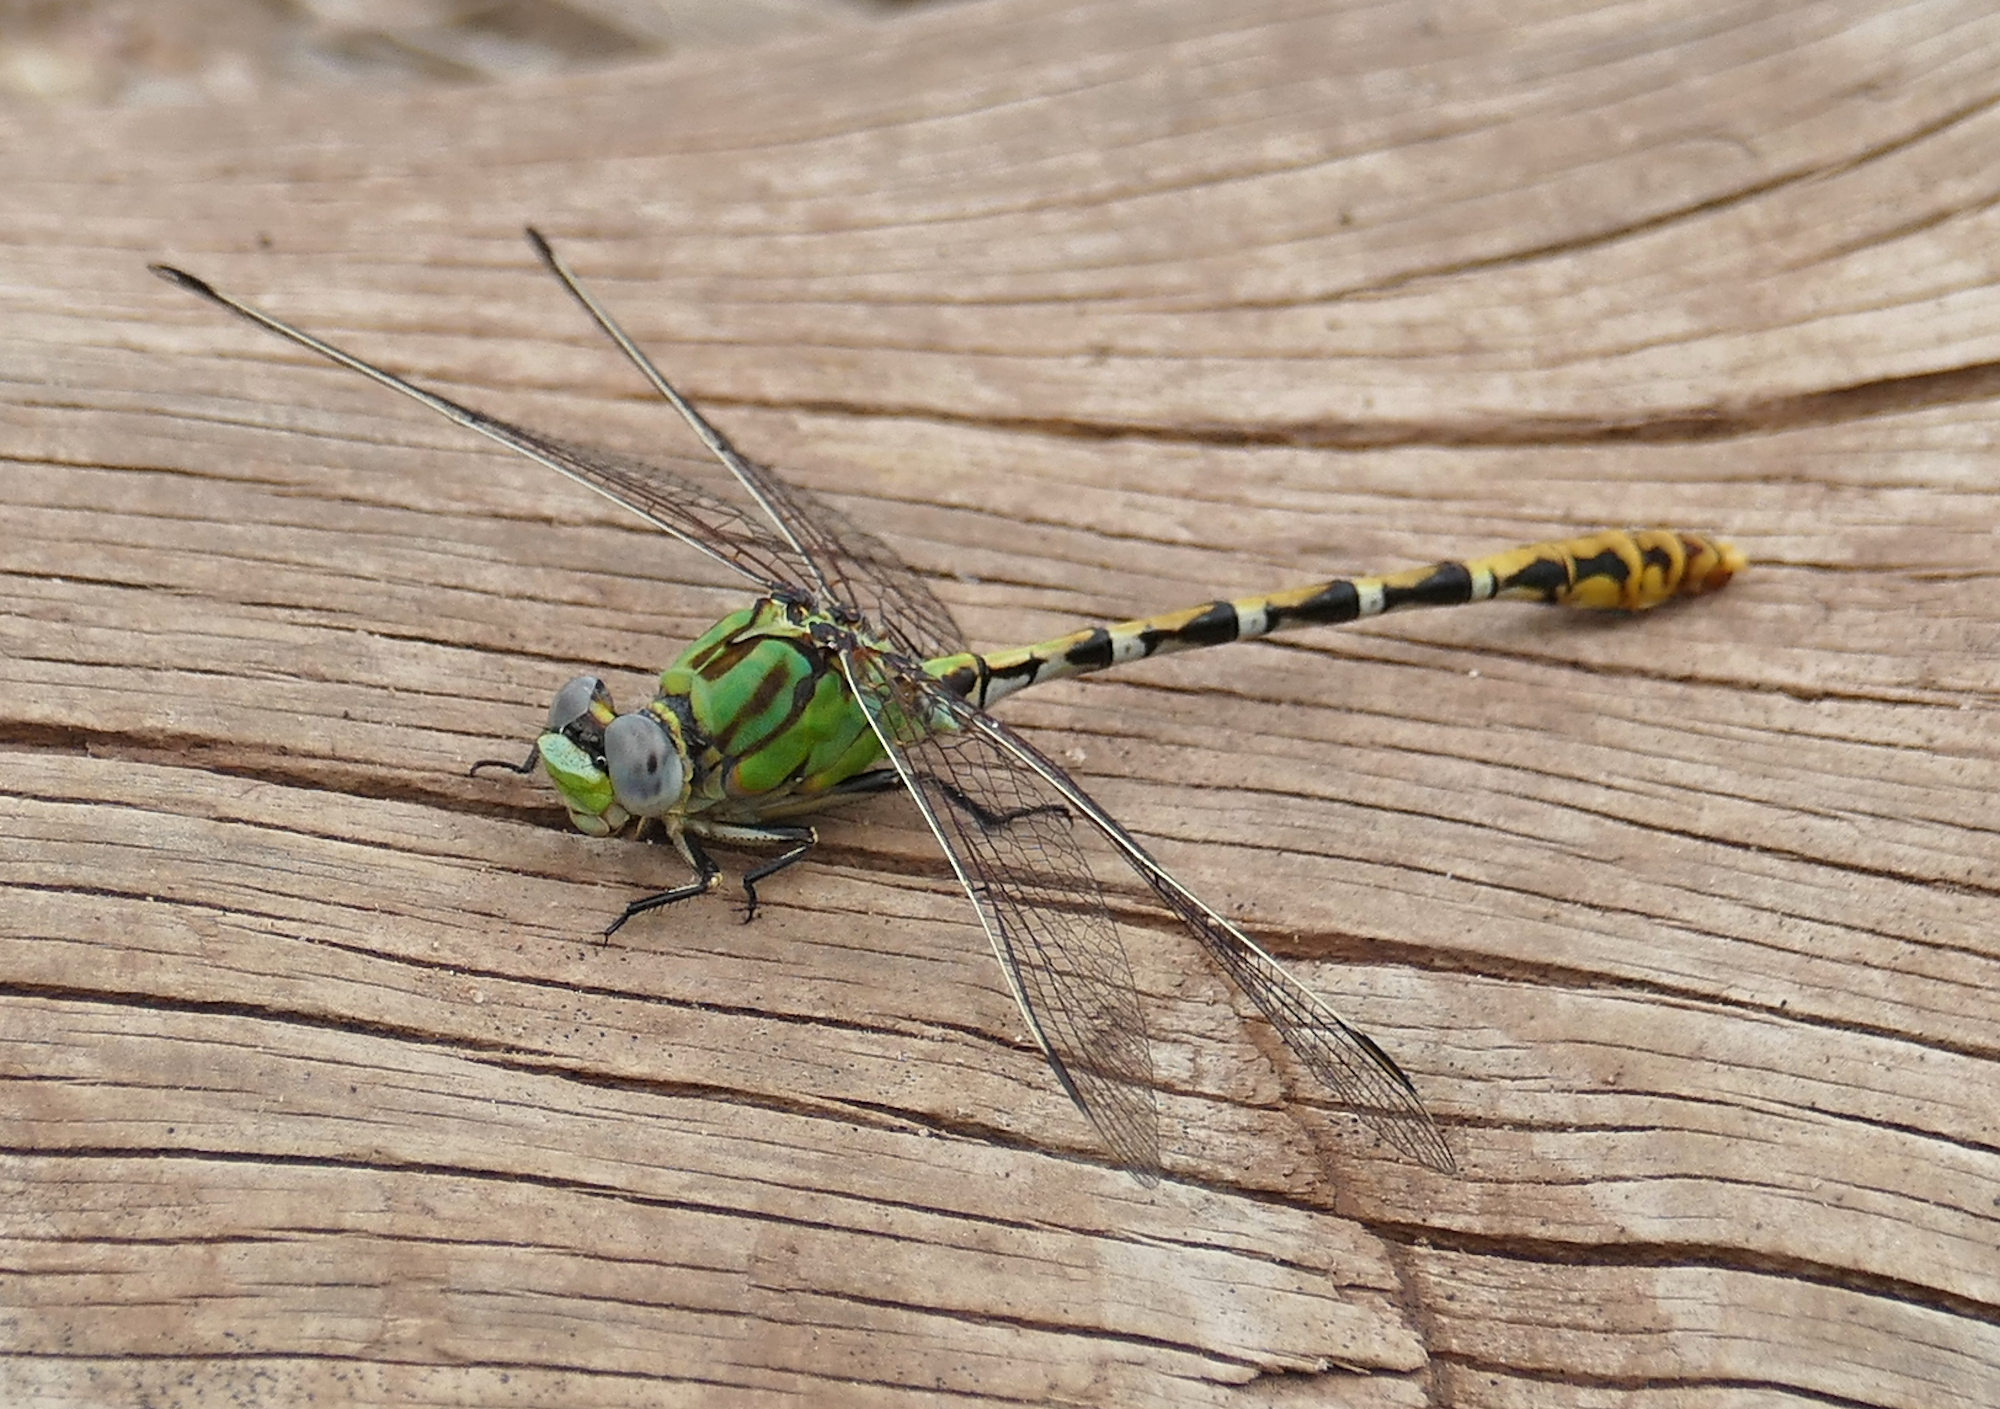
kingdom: Animalia
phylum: Arthropoda
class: Insecta
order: Odonata
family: Gomphidae
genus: Erpetogomphus
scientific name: Erpetogomphus heterodon
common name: Dashed ringtail
